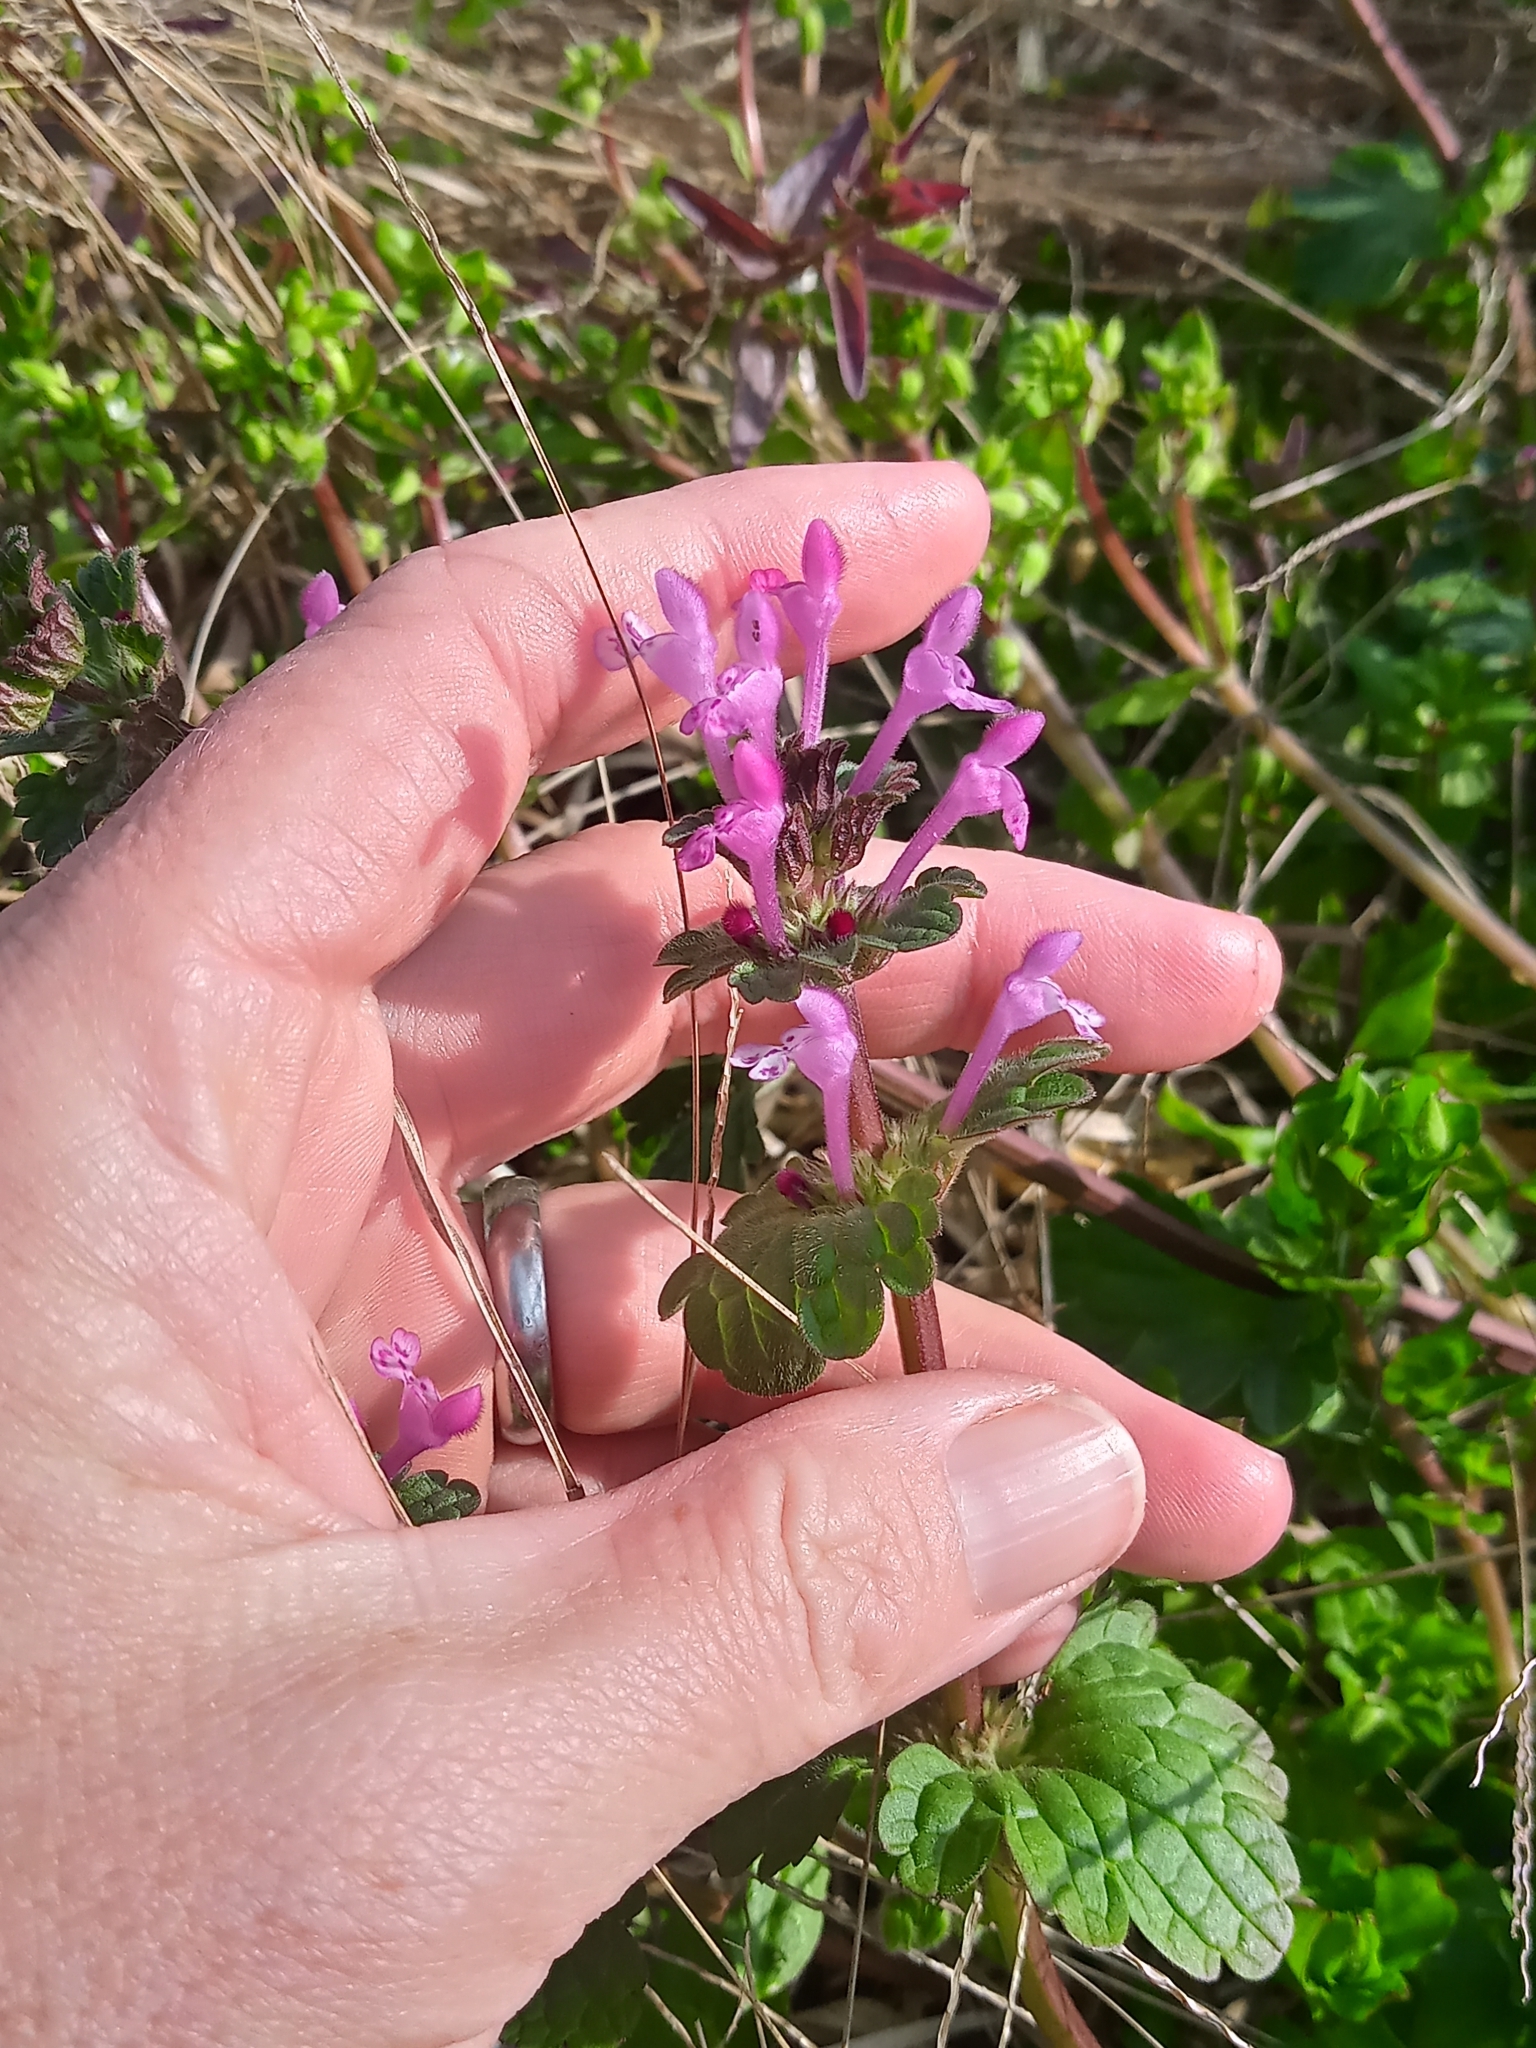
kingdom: Plantae
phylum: Tracheophyta
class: Magnoliopsida
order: Lamiales
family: Lamiaceae
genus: Lamium
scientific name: Lamium amplexicaule
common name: Henbit dead-nettle
